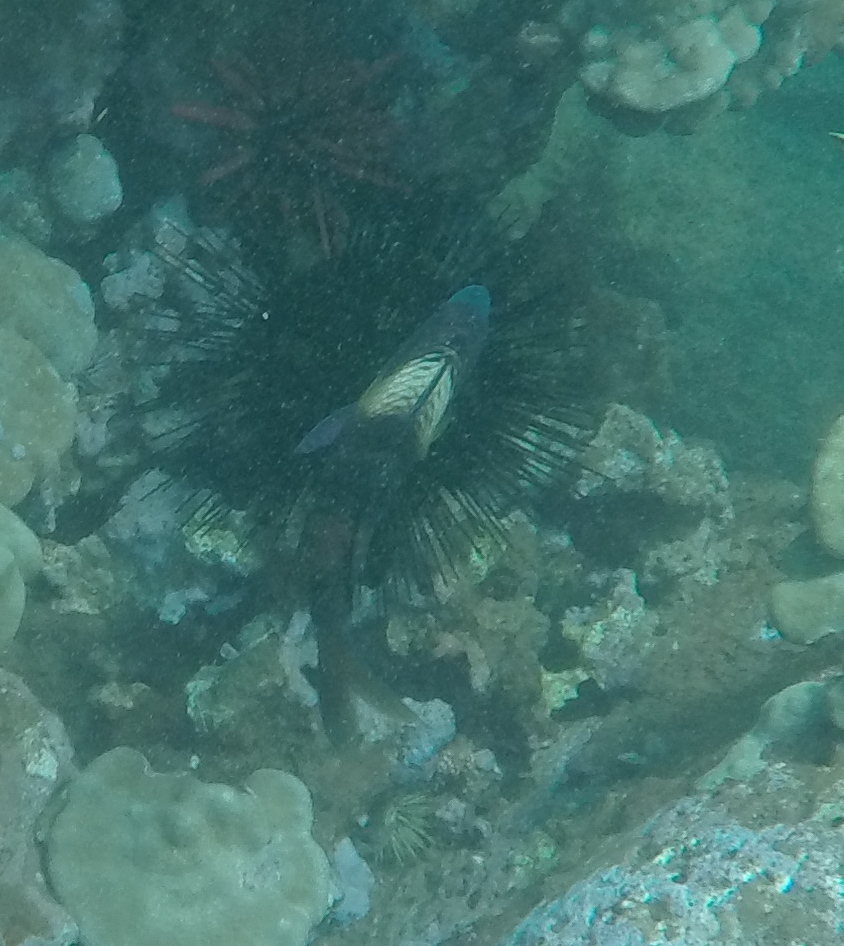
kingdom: Animalia
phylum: Chordata
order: Perciformes
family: Mullidae
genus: Parupeneus
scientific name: Parupeneus multifasciatus
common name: Manybar goatfish
